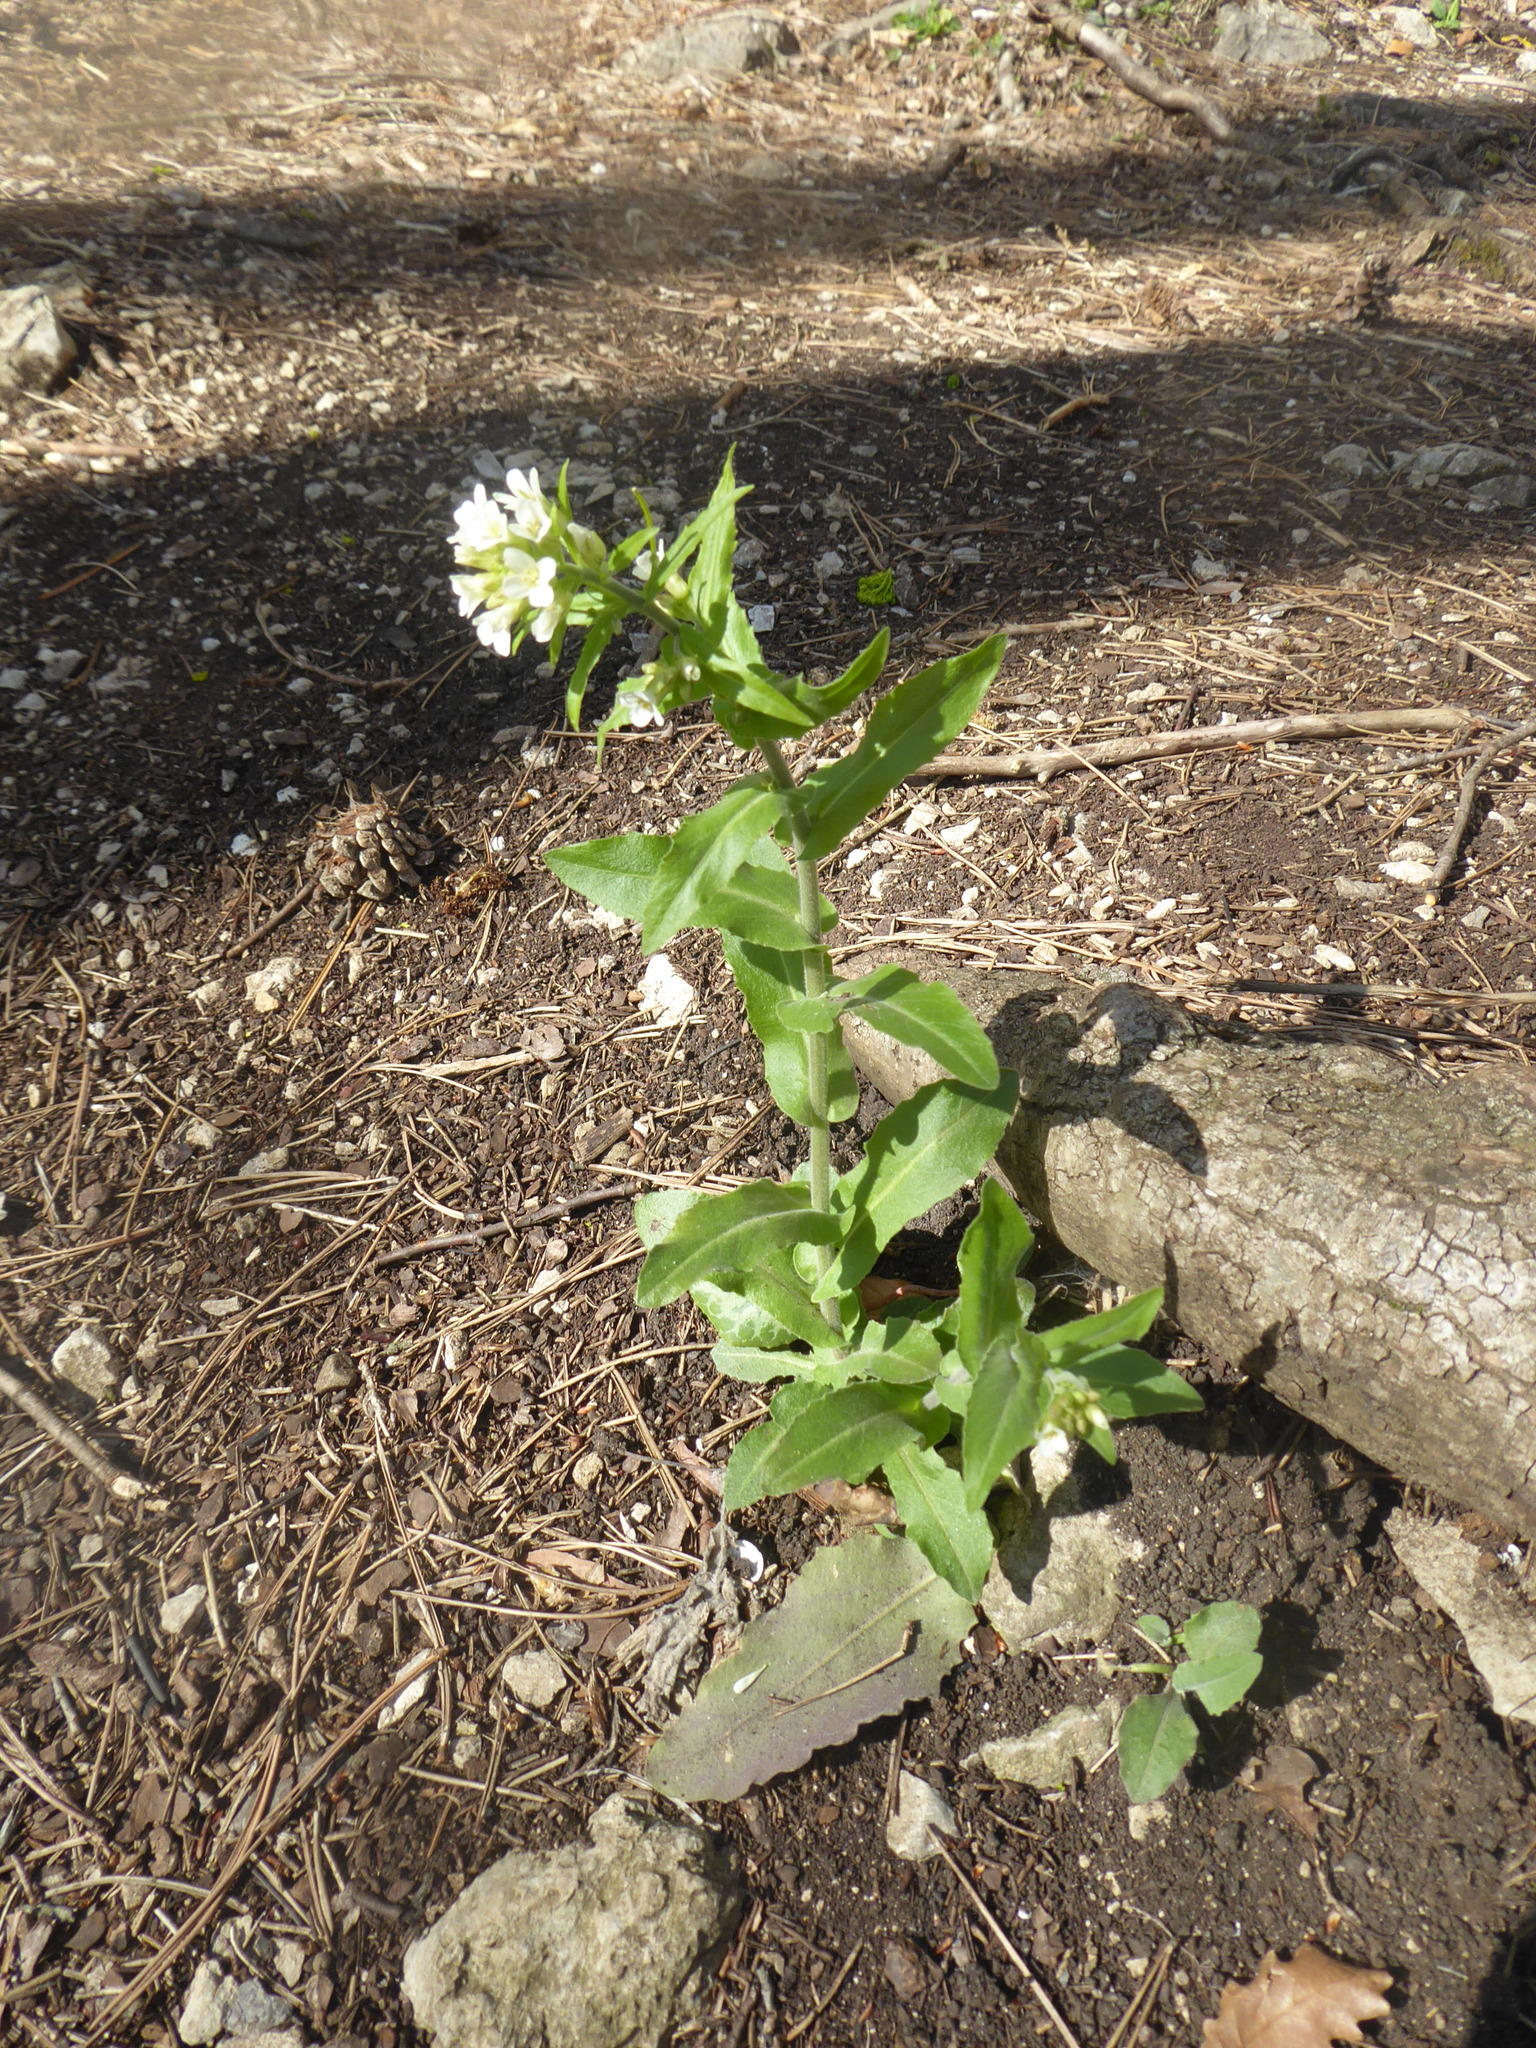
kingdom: Plantae
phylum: Tracheophyta
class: Magnoliopsida
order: Brassicales
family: Brassicaceae
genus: Pseudoturritis
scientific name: Pseudoturritis turrita
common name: Tower cress
